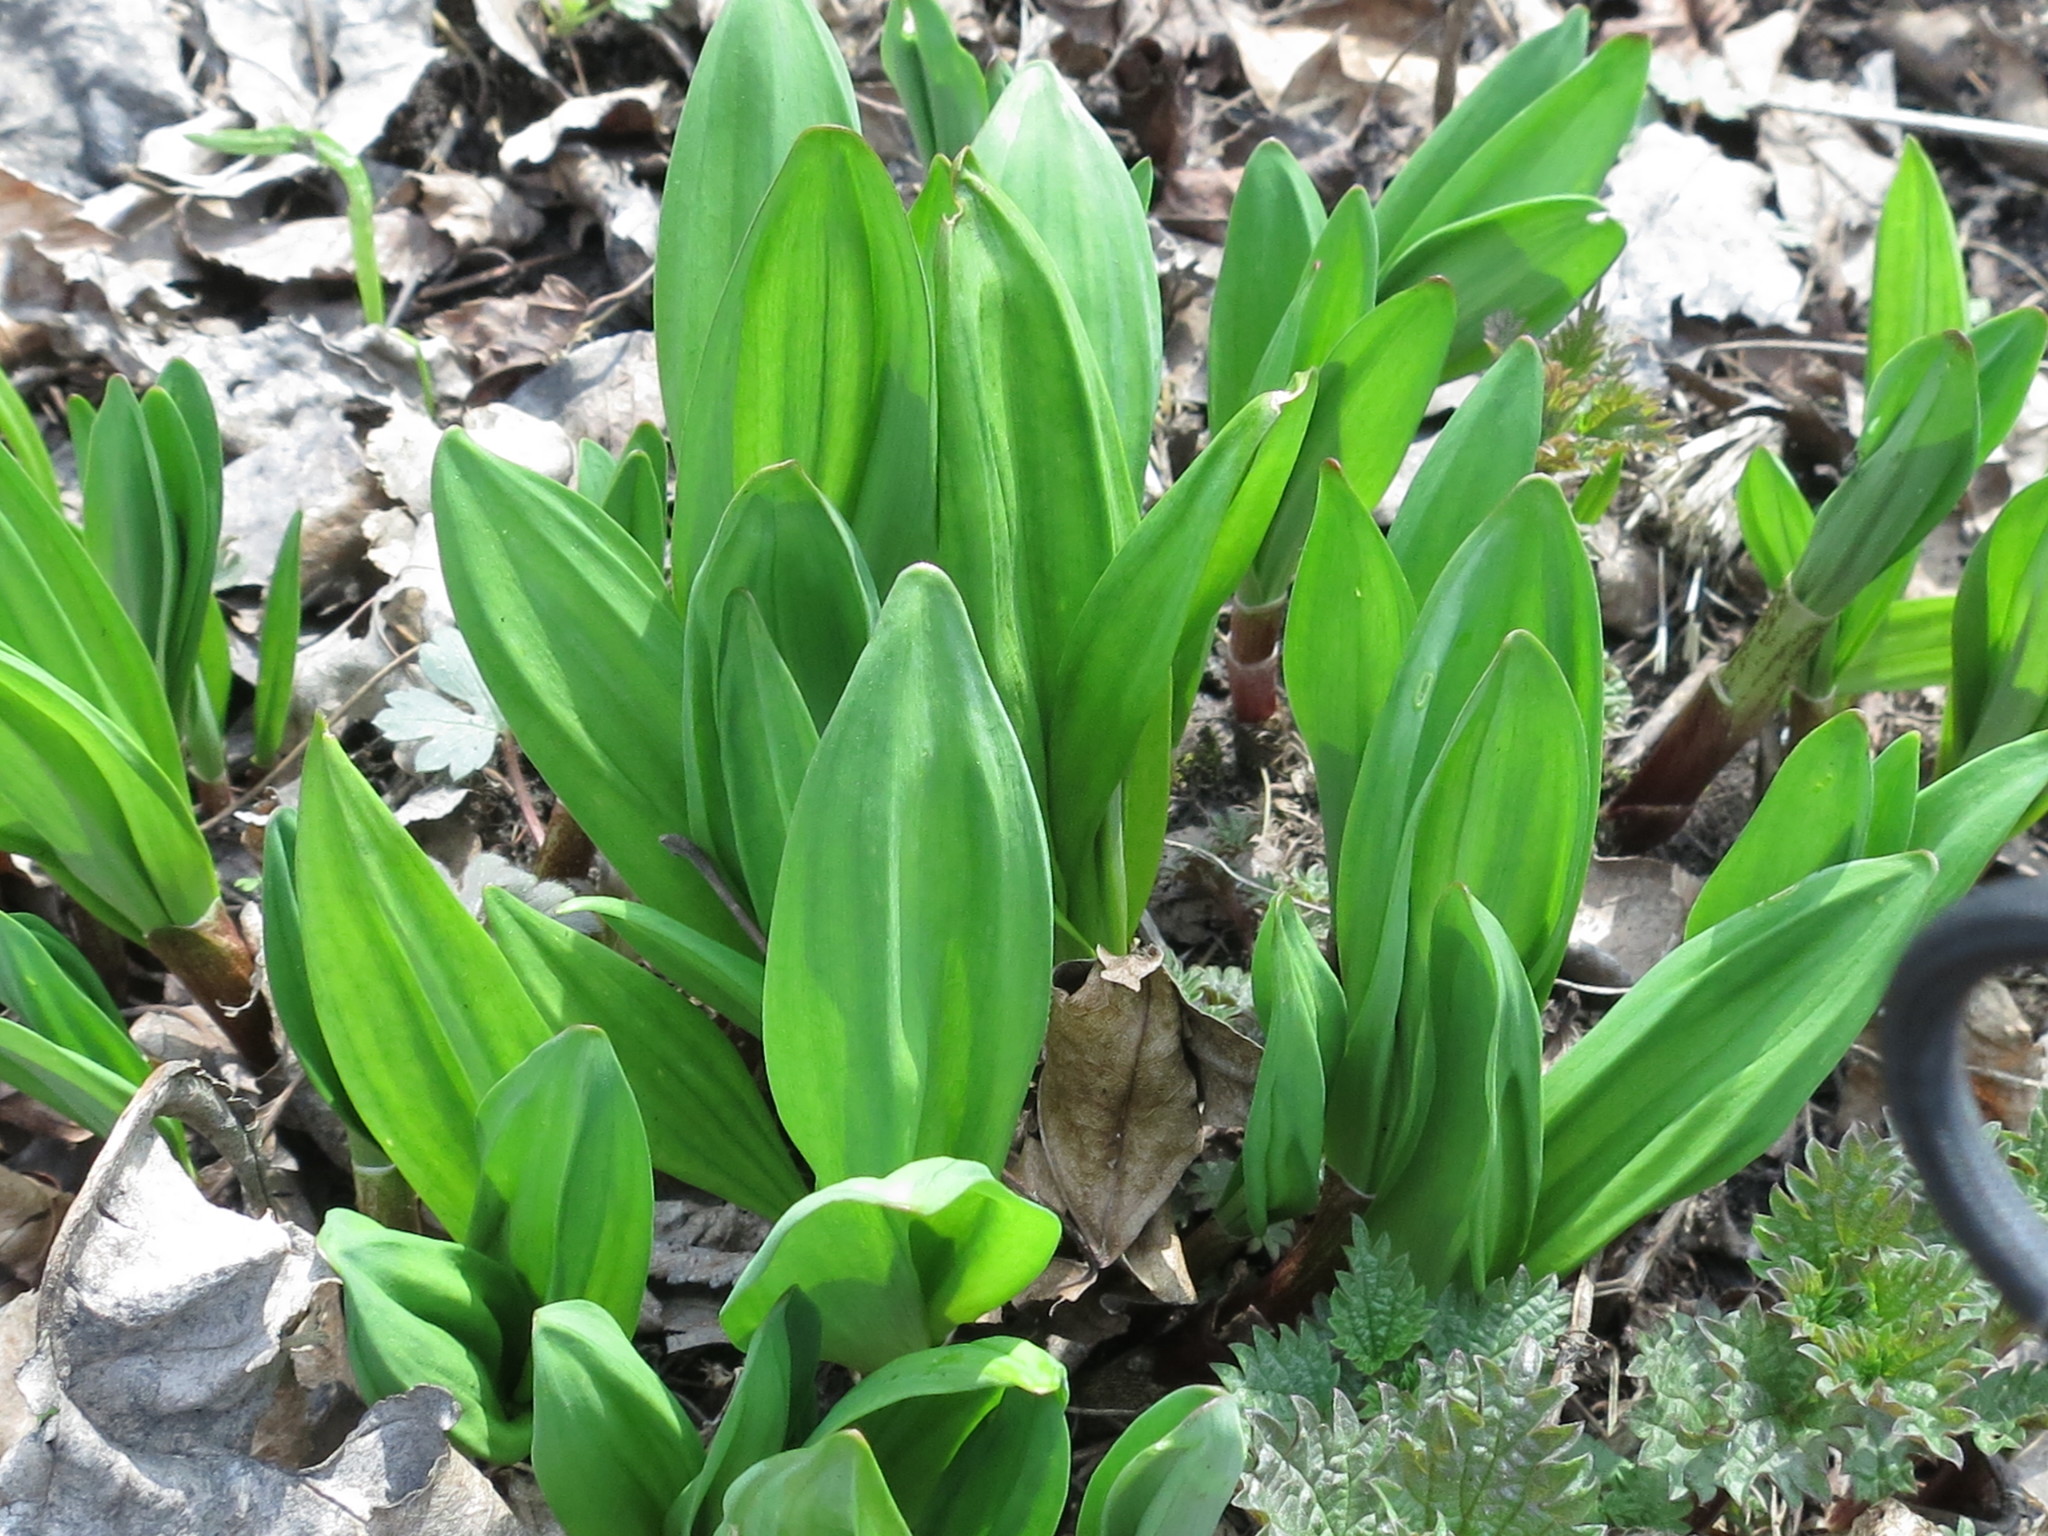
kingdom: Plantae
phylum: Tracheophyta
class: Liliopsida
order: Asparagales
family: Amaryllidaceae
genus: Allium
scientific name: Allium ochotense
